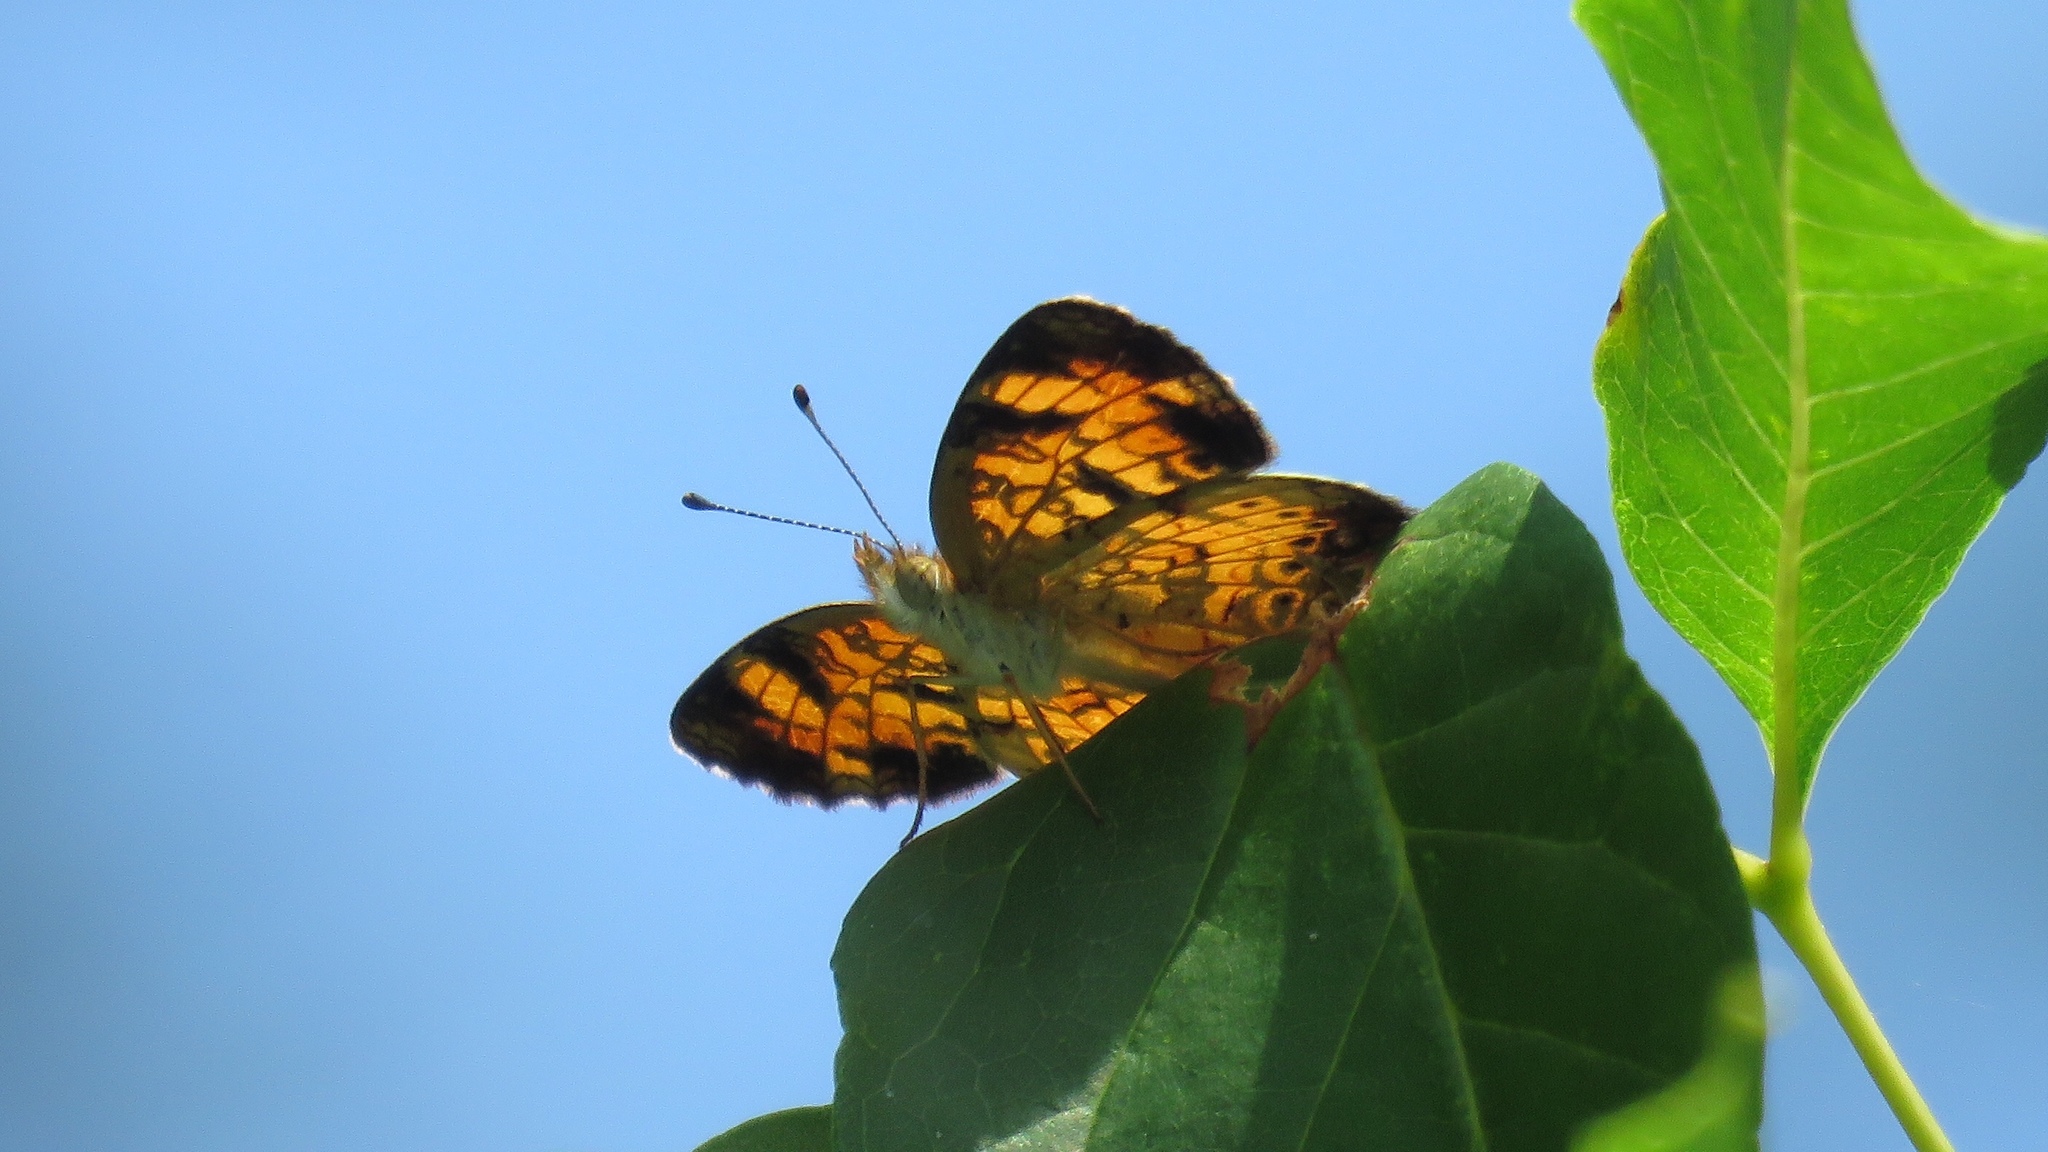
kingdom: Animalia
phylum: Arthropoda
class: Insecta
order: Lepidoptera
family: Nymphalidae
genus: Phyciodes
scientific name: Phyciodes tharos
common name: Pearl crescent
